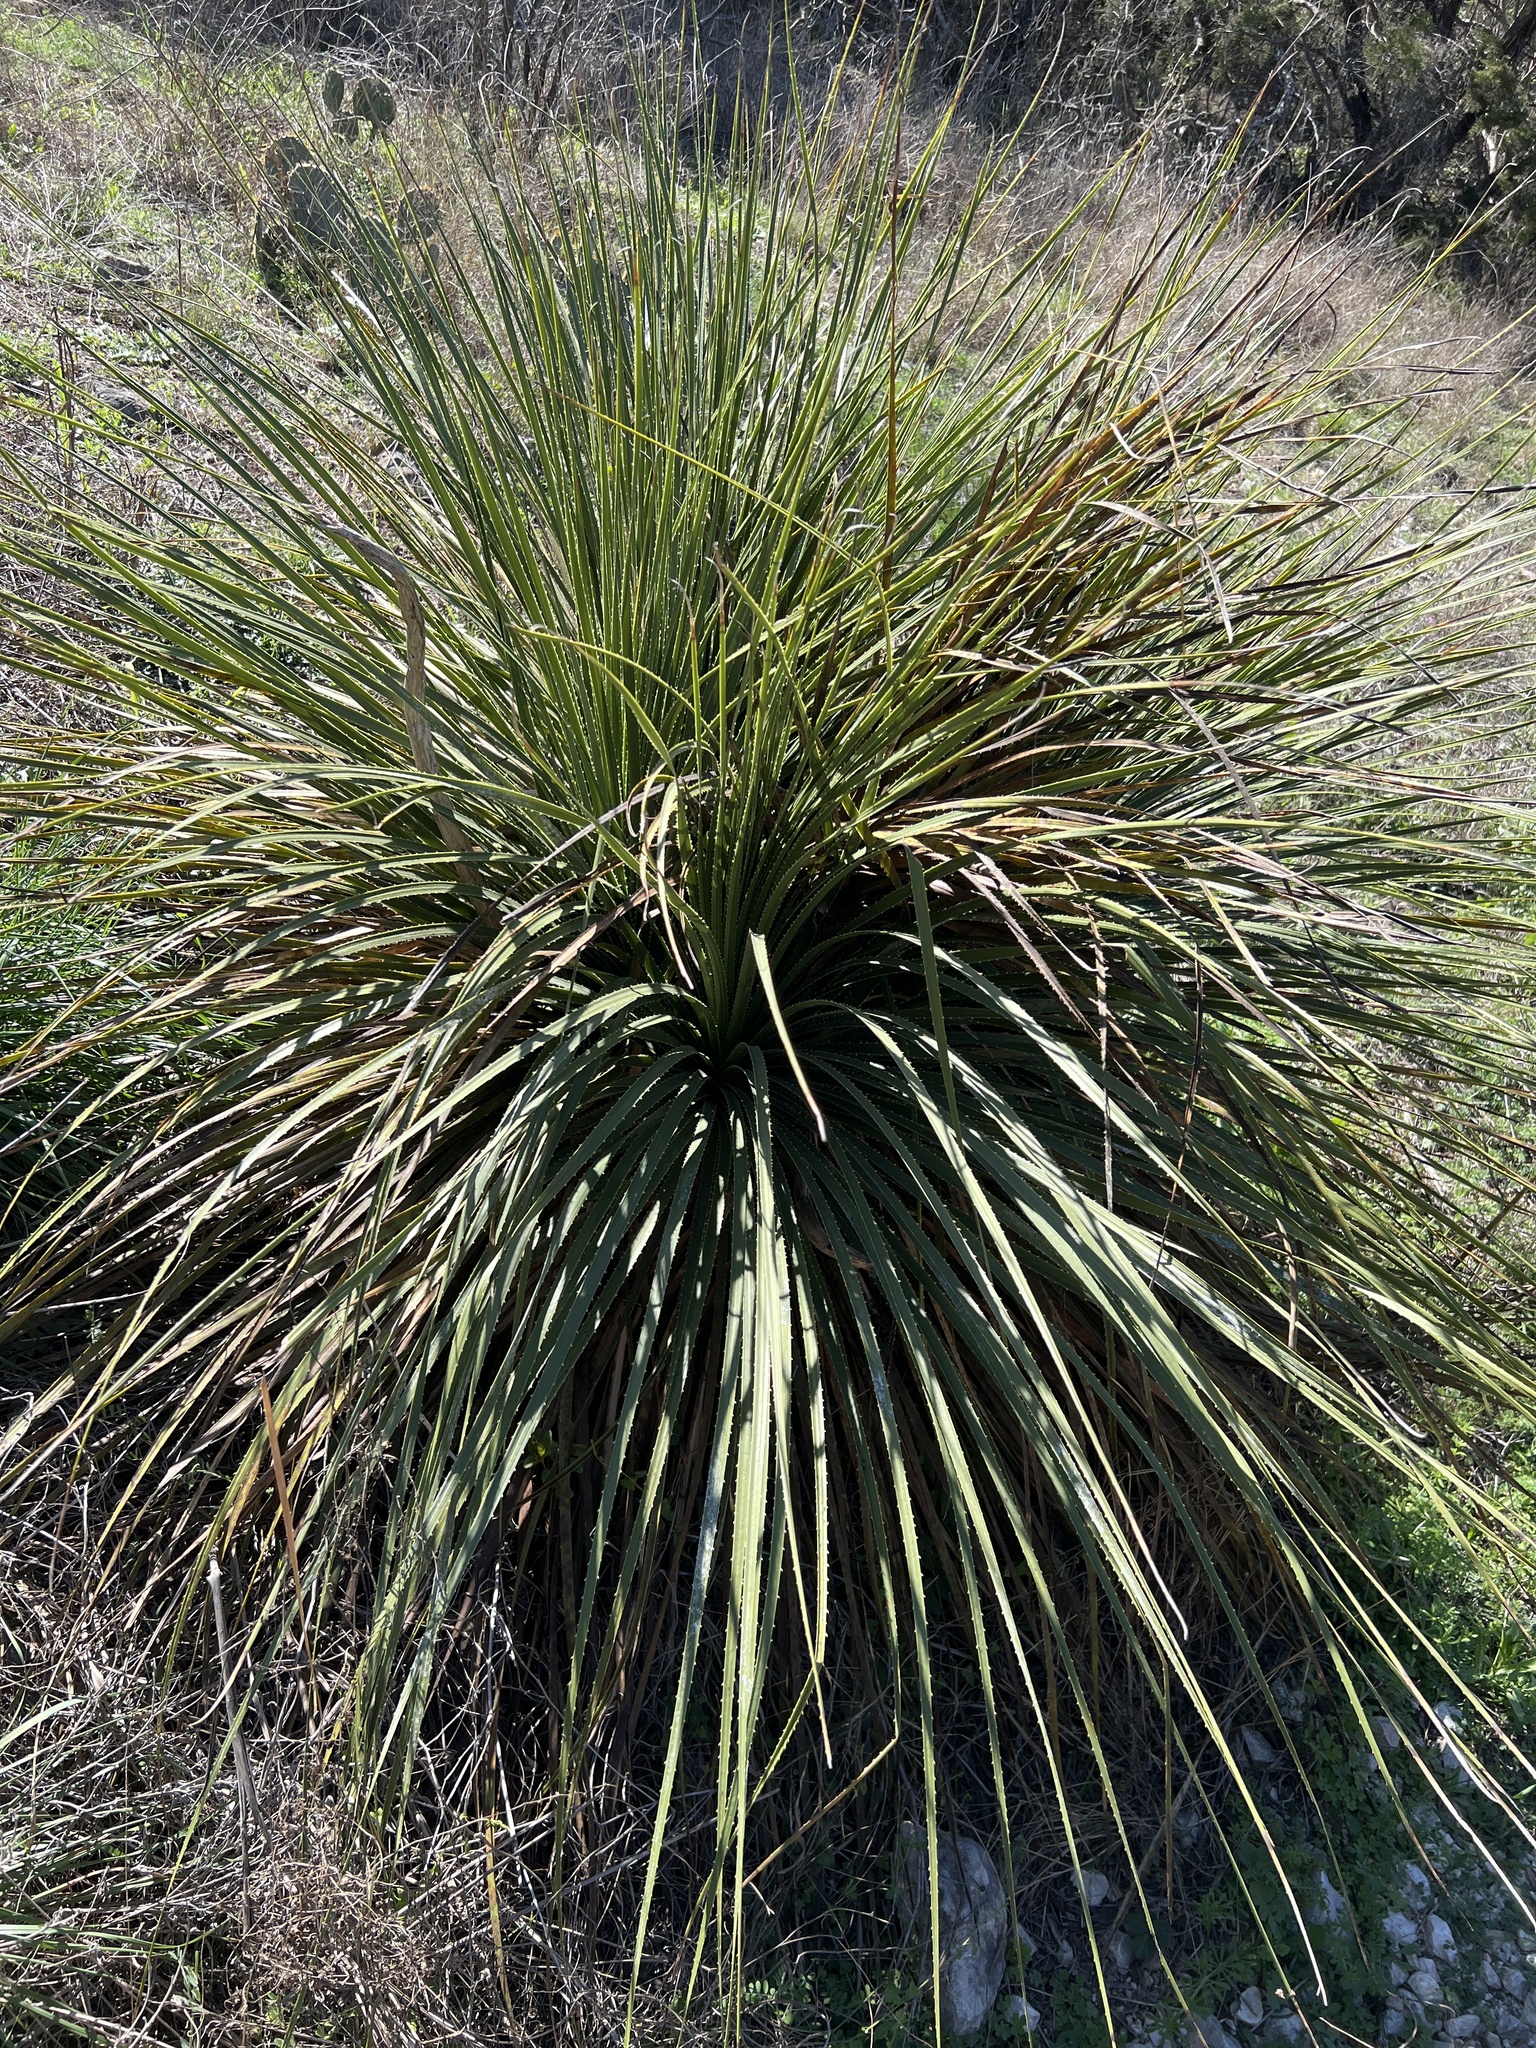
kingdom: Plantae
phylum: Tracheophyta
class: Liliopsida
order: Asparagales
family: Asparagaceae
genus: Dasylirion
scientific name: Dasylirion texanum
